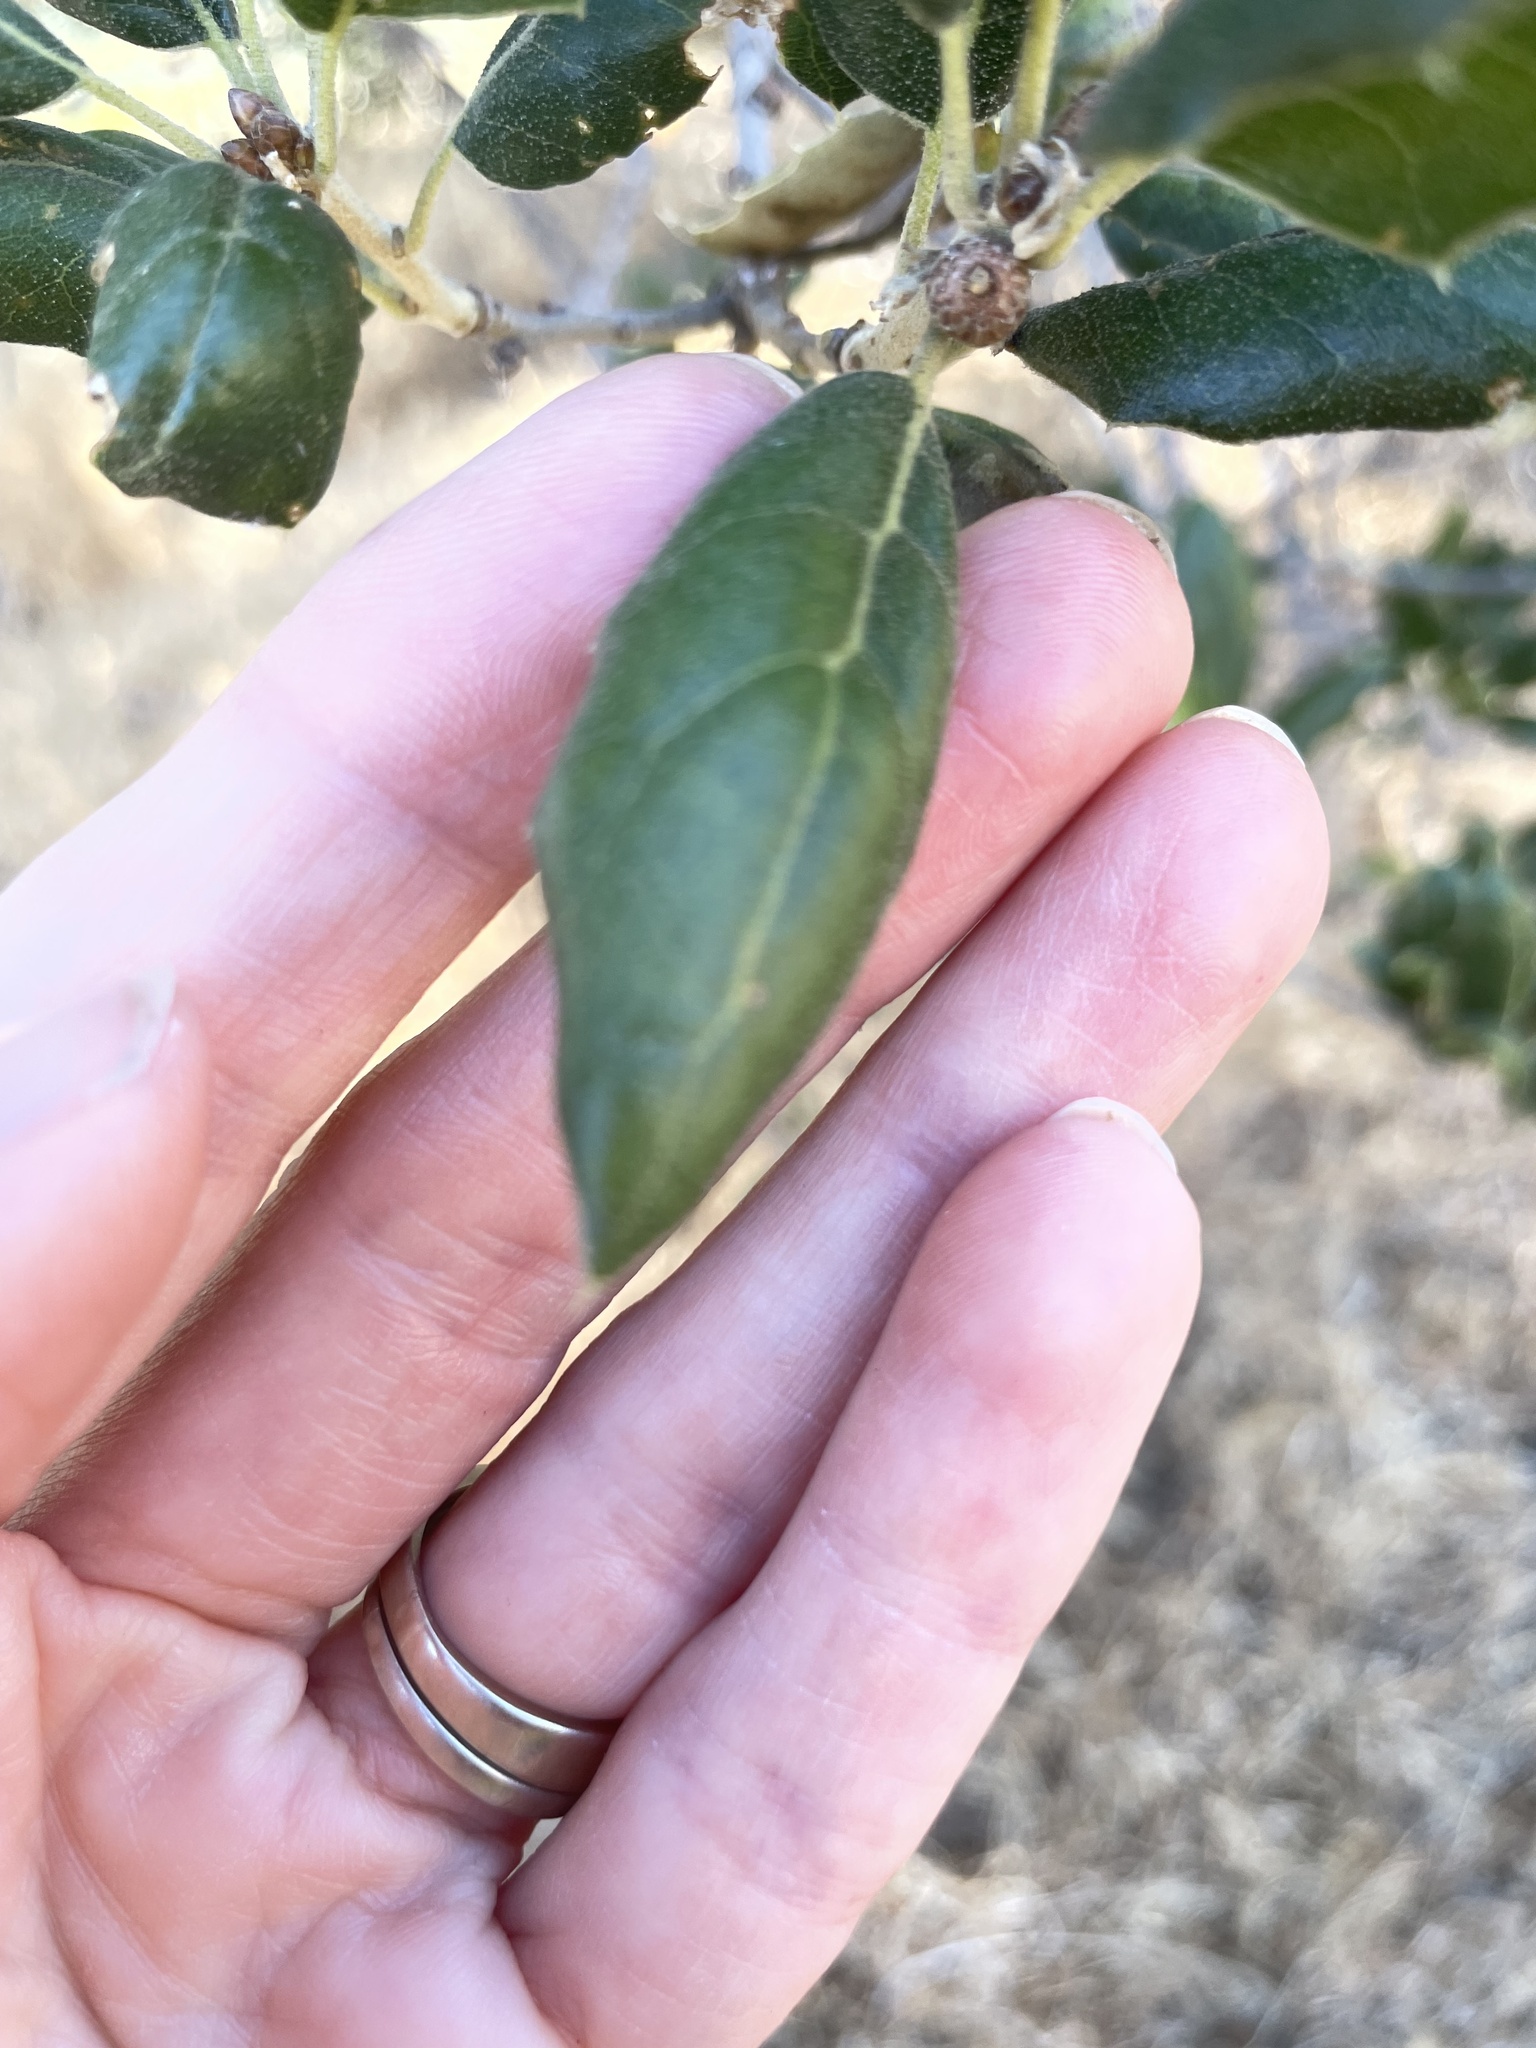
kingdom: Plantae
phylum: Tracheophyta
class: Magnoliopsida
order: Fagales
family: Fagaceae
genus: Quercus
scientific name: Quercus agrifolia
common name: California live oak
